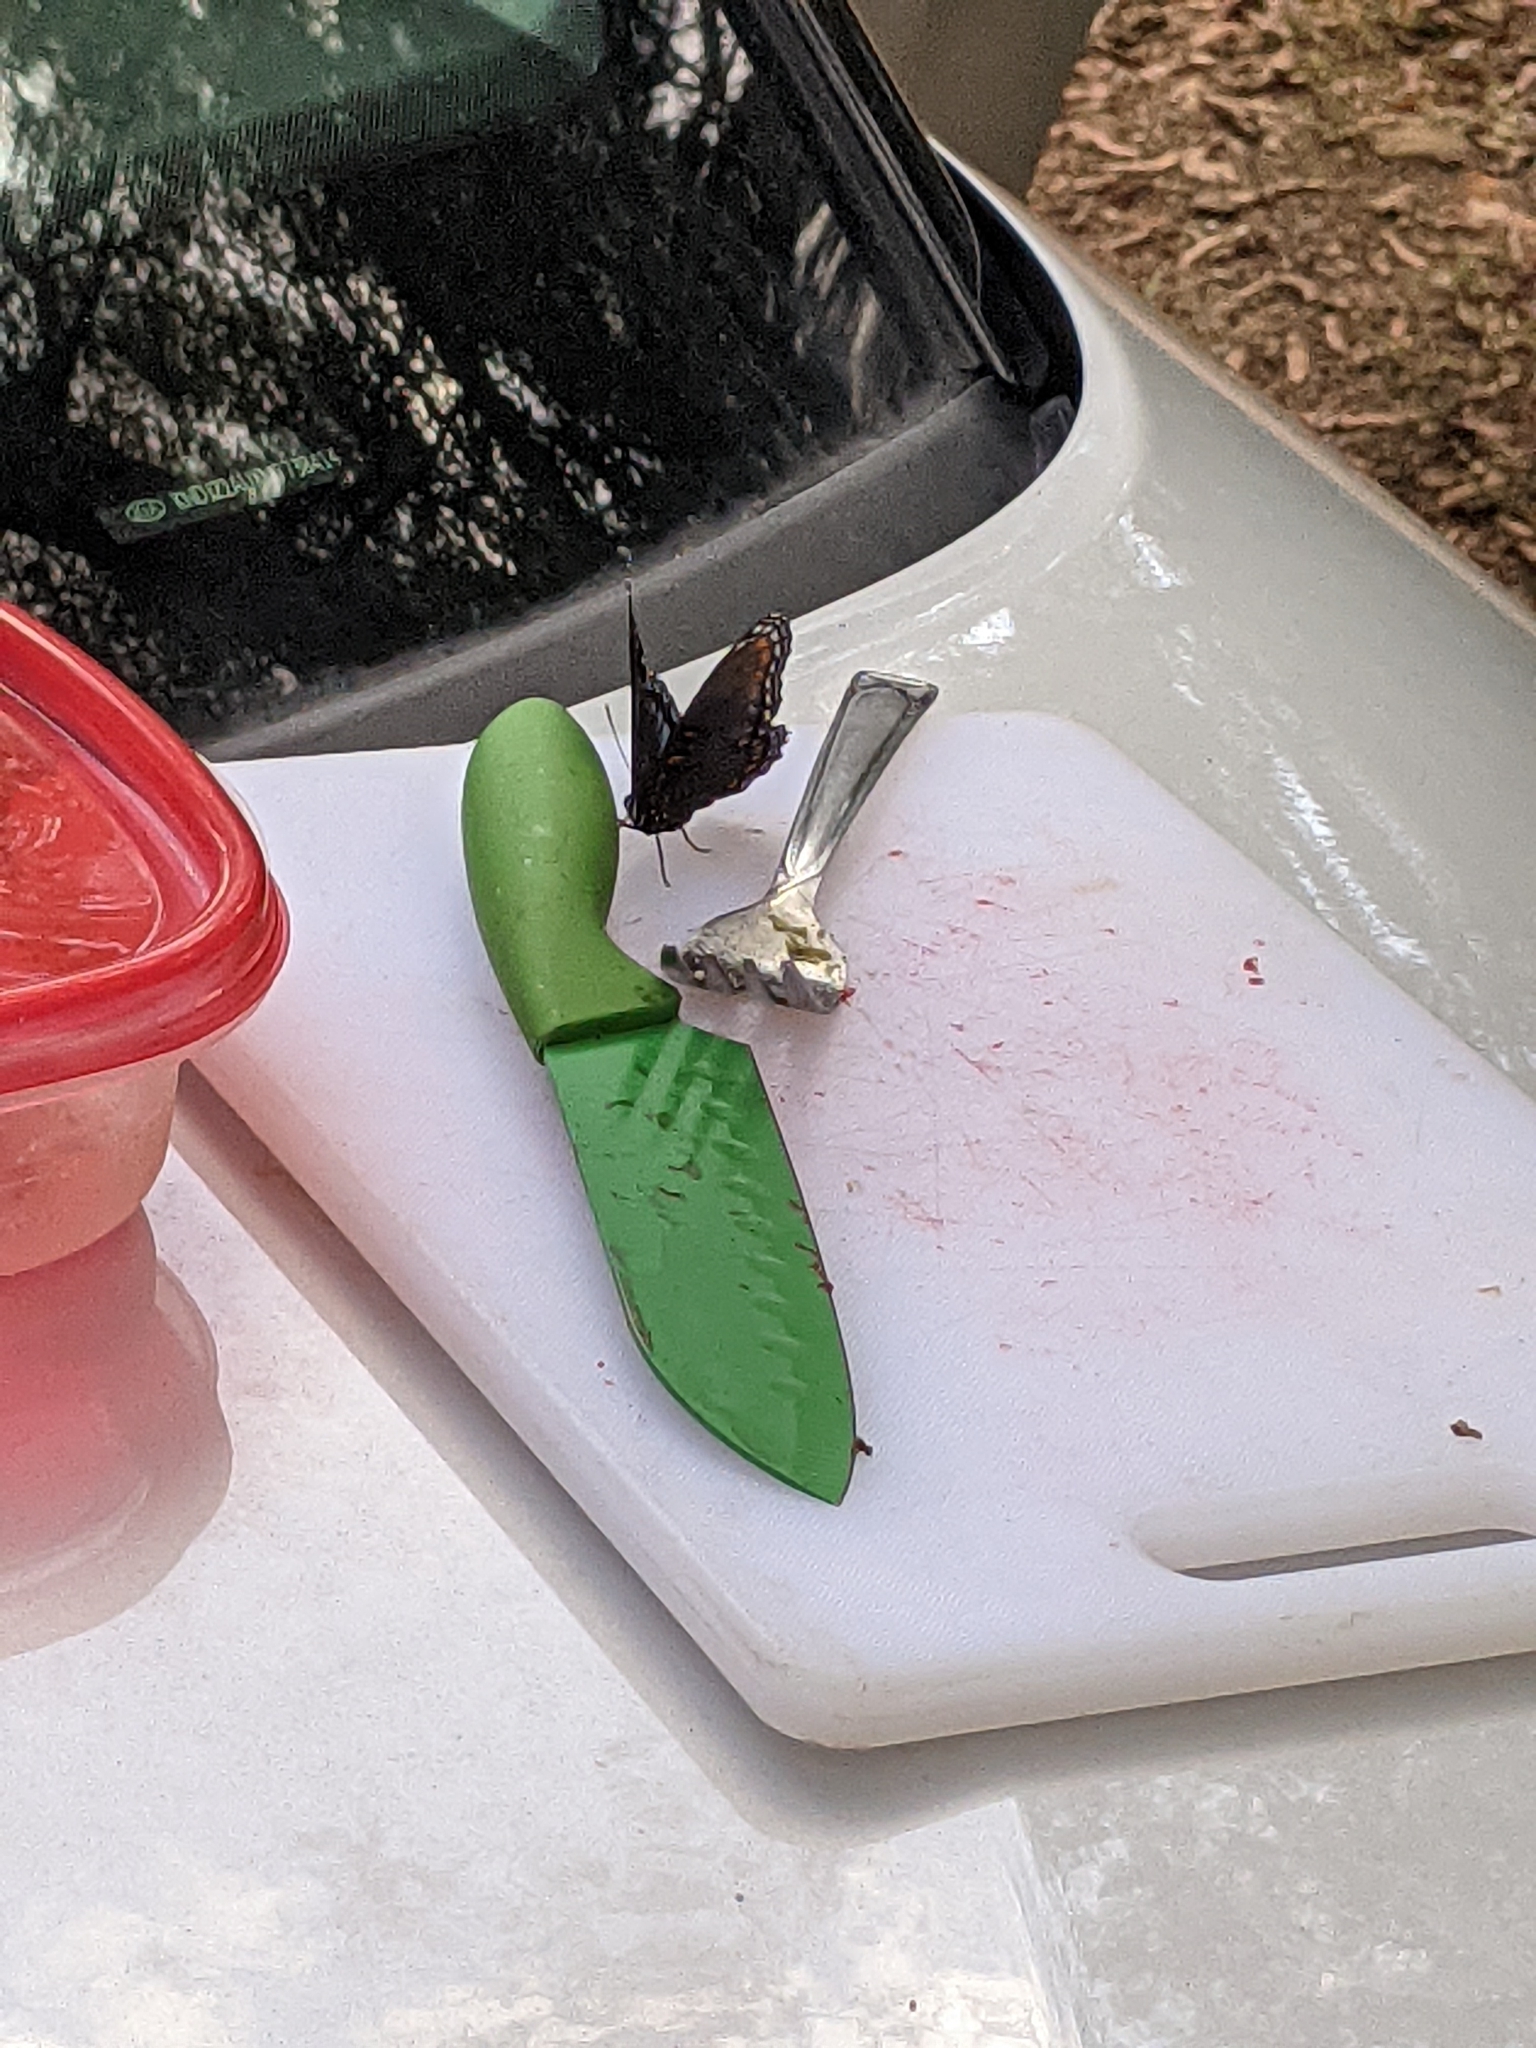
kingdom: Animalia
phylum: Arthropoda
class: Insecta
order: Lepidoptera
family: Nymphalidae
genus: Limenitis
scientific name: Limenitis astyanax
